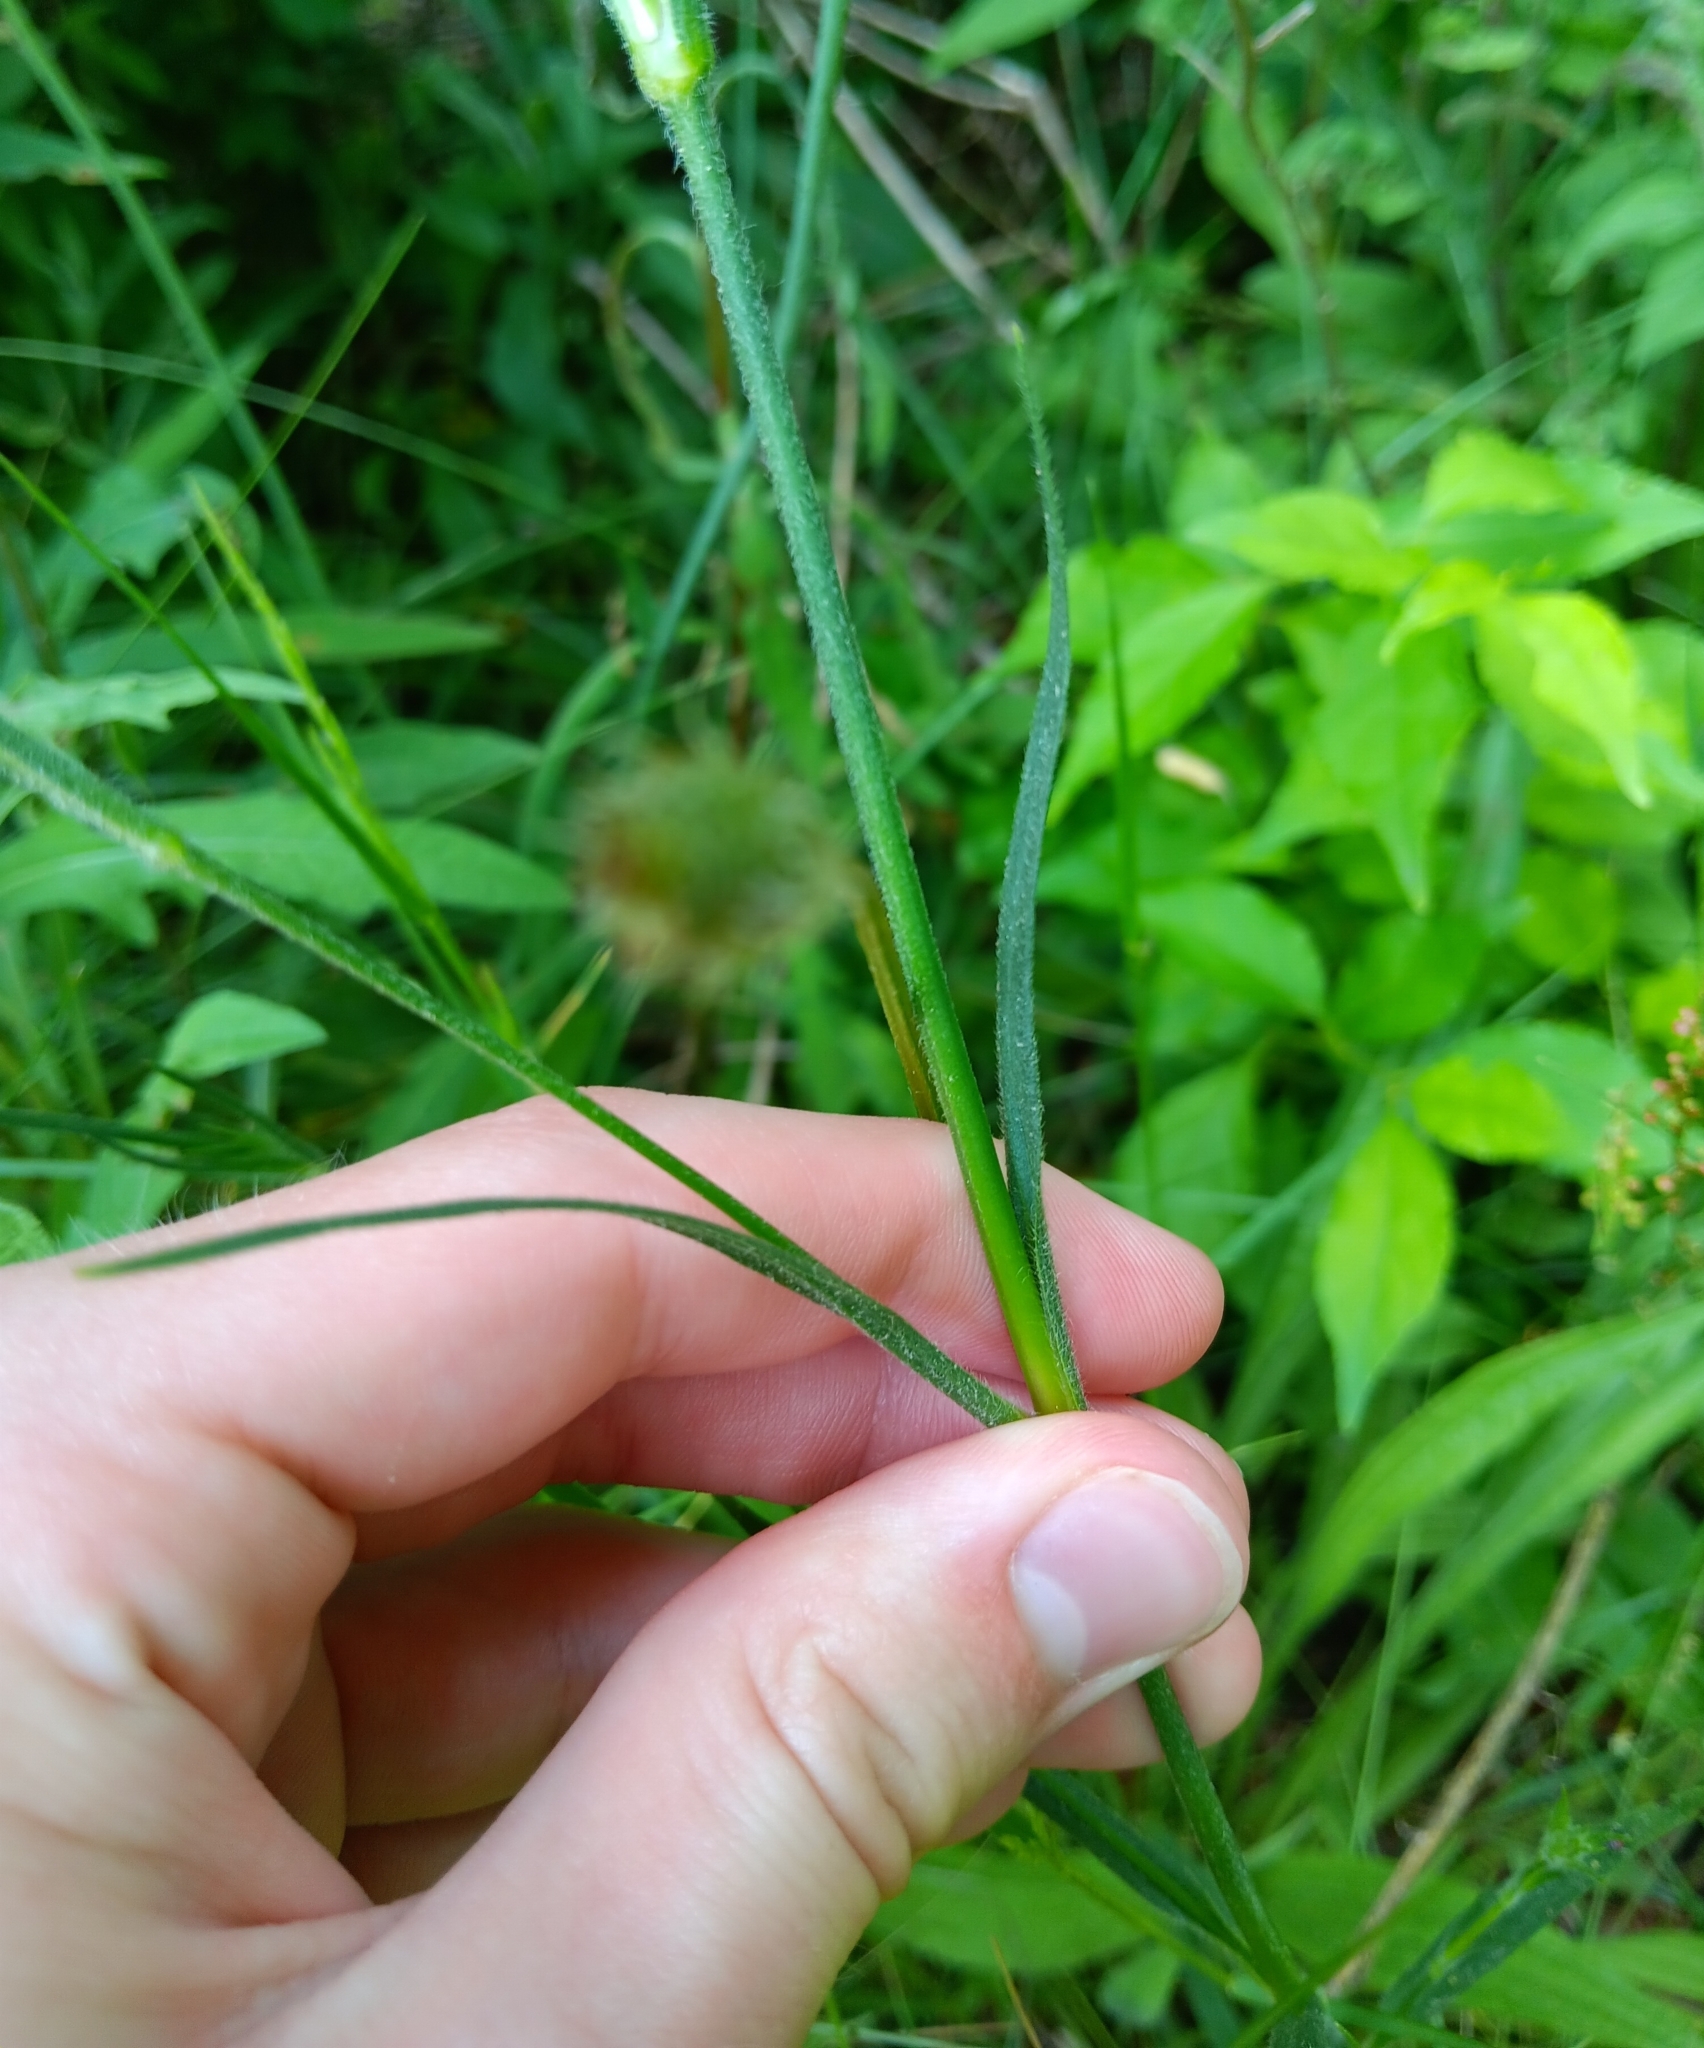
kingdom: Plantae
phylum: Tracheophyta
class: Magnoliopsida
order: Caryophyllales
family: Caryophyllaceae
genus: Dianthus
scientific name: Dianthus armeria
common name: Deptford pink
